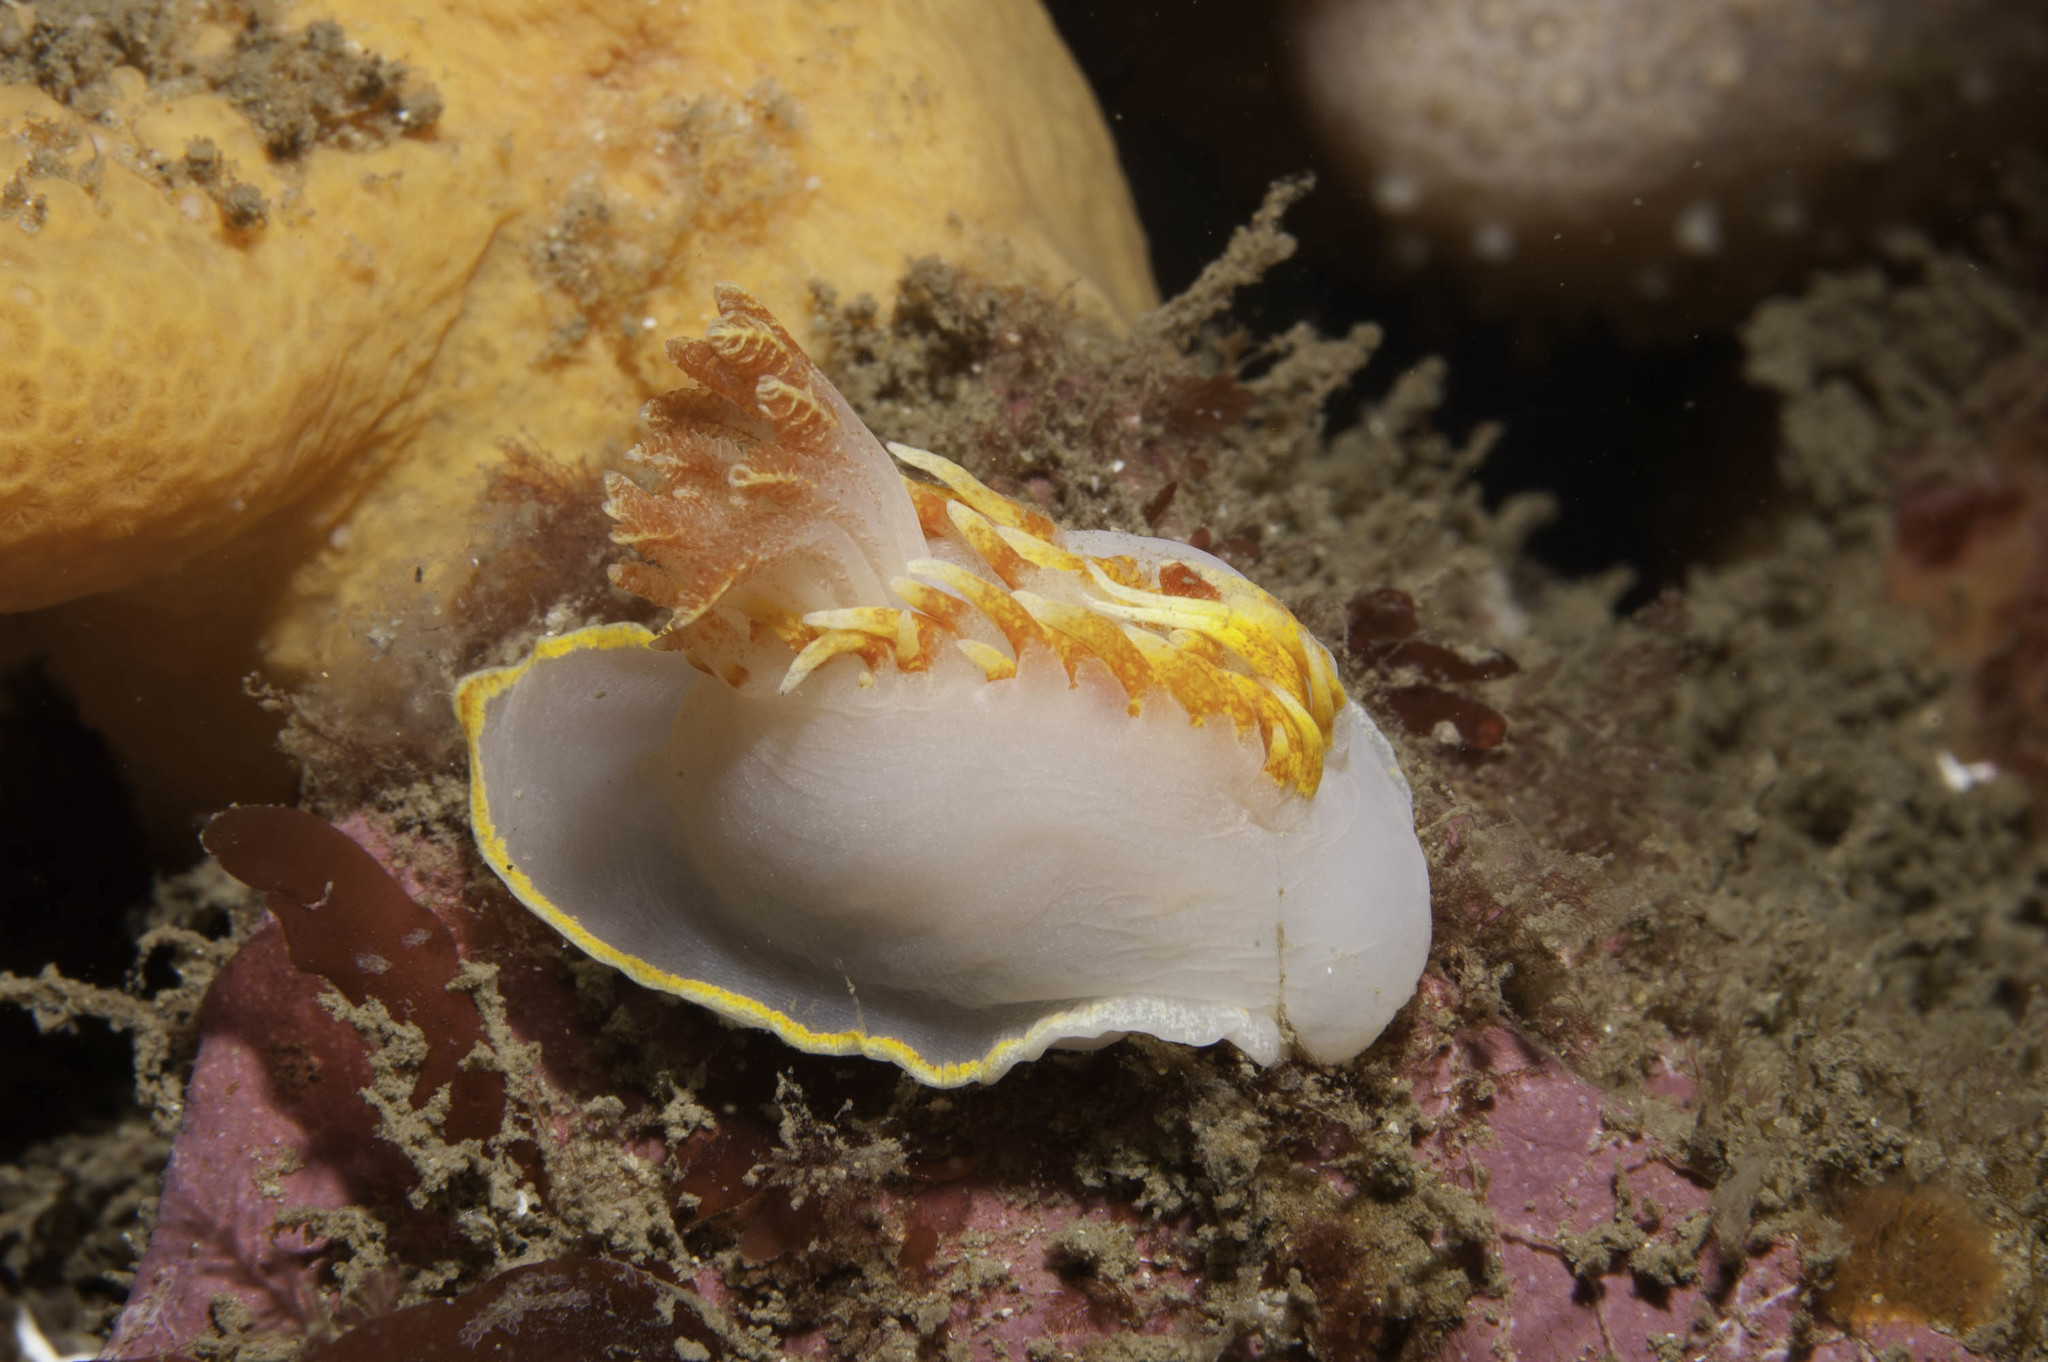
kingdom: Animalia
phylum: Mollusca
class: Gastropoda
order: Nudibranchia
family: Goniodorididae
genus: Okenia
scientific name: Okenia elegans
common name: Yellow skirt slug
